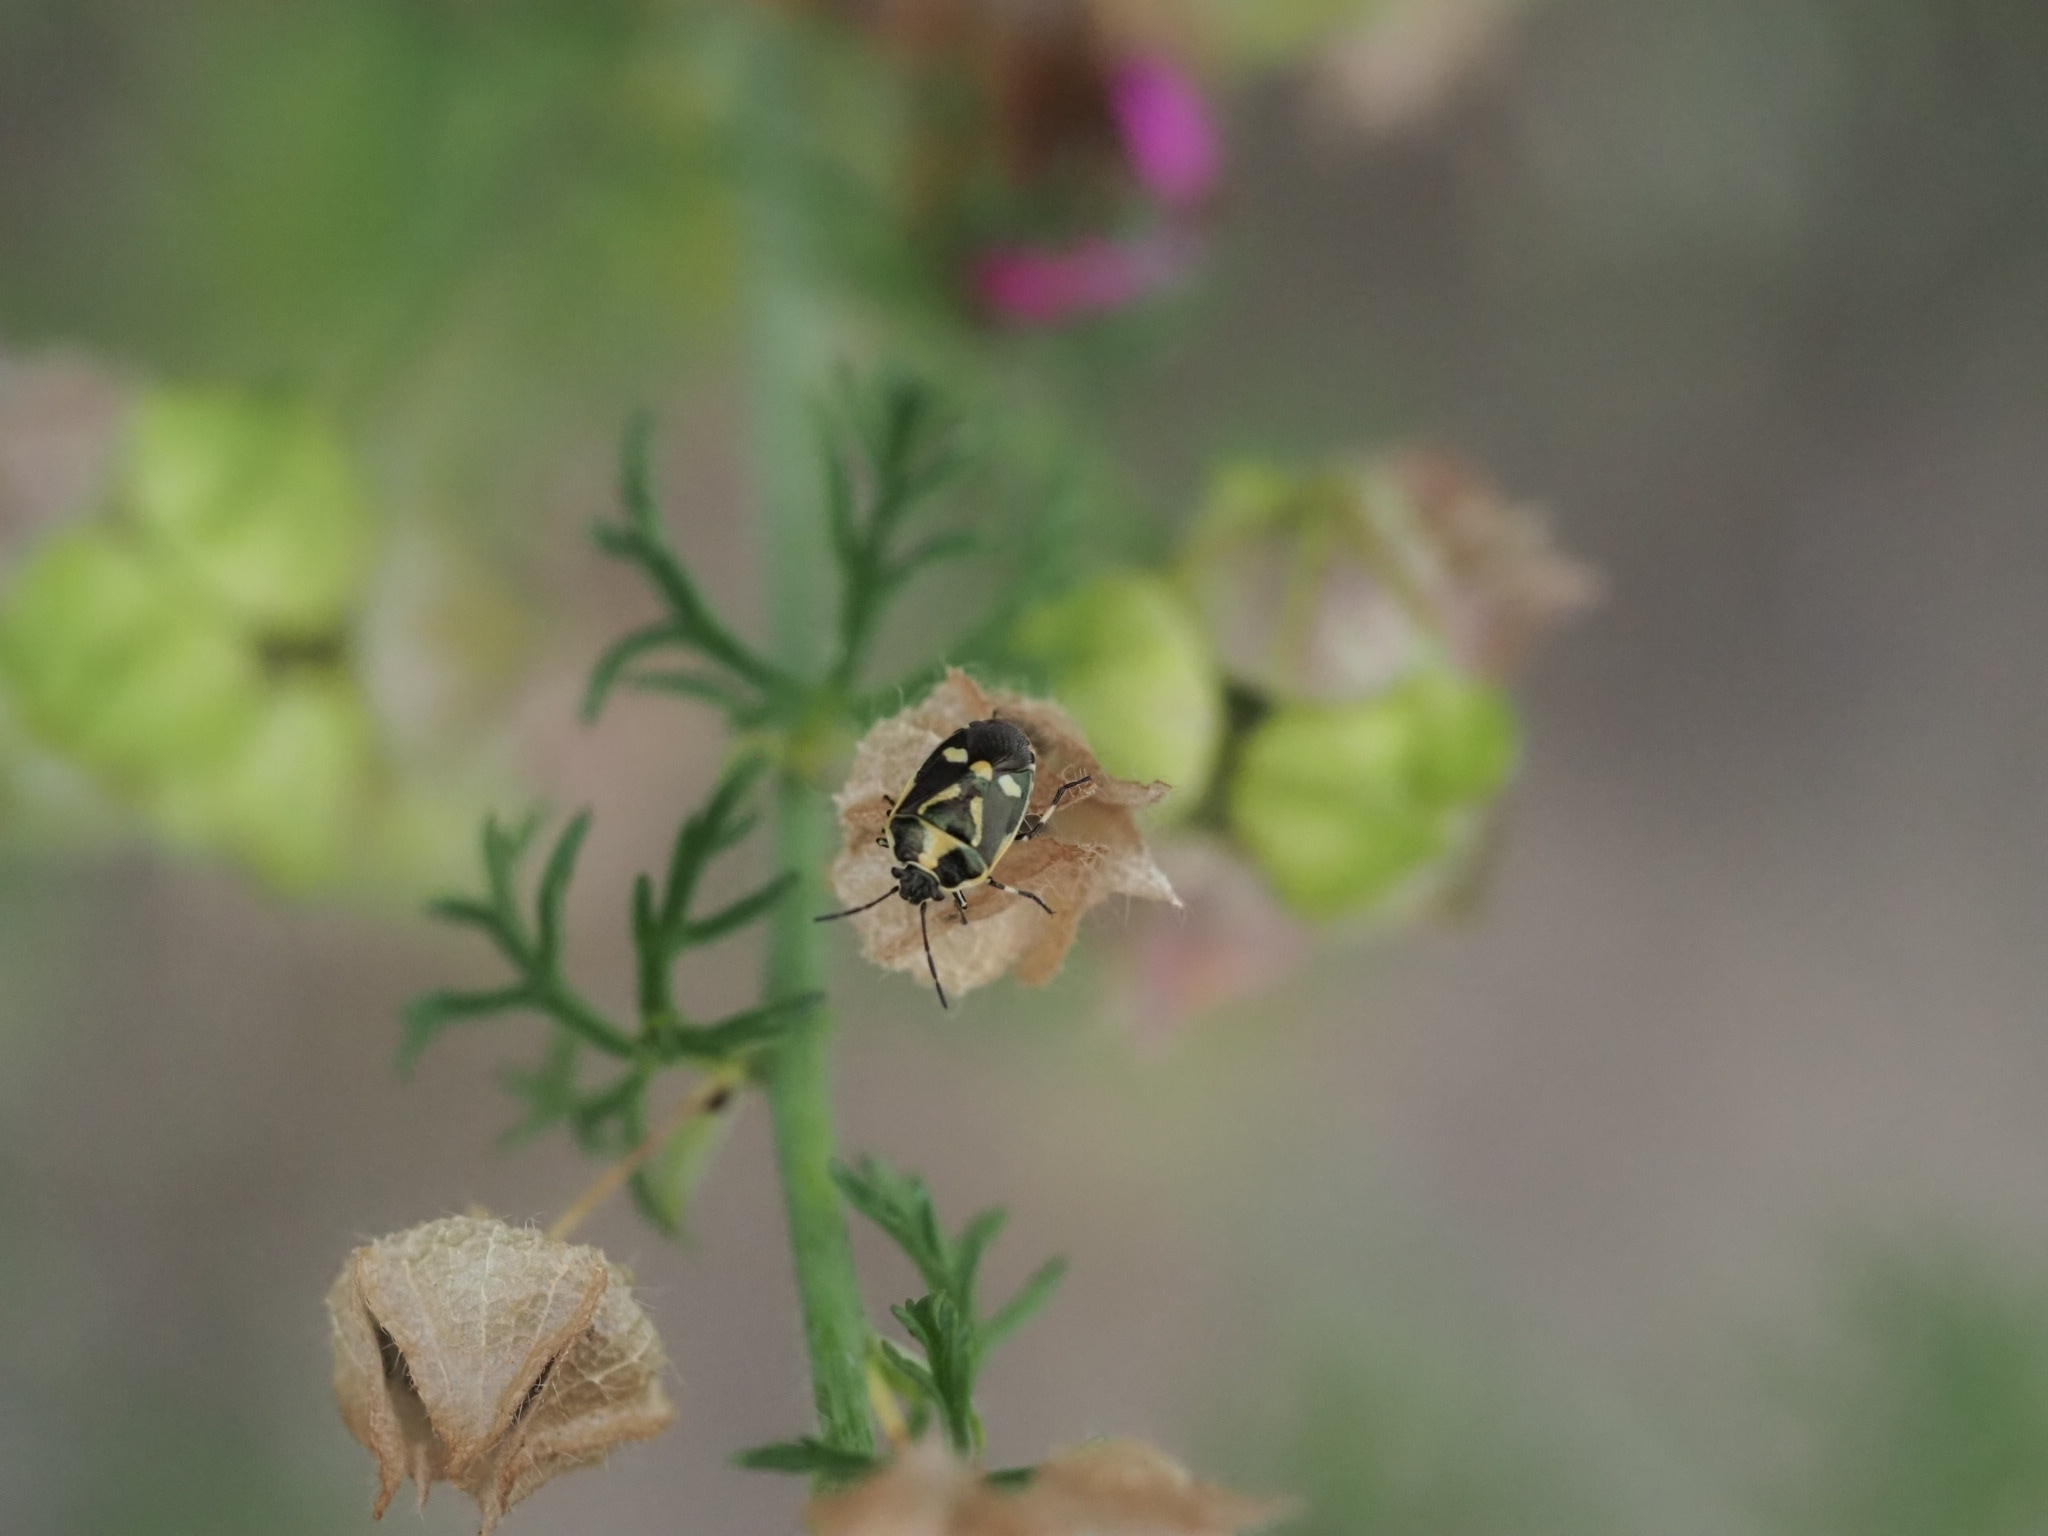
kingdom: Animalia
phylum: Arthropoda
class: Insecta
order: Hemiptera
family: Pentatomidae
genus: Eurydema
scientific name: Eurydema oleracea
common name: Cabbage bug
